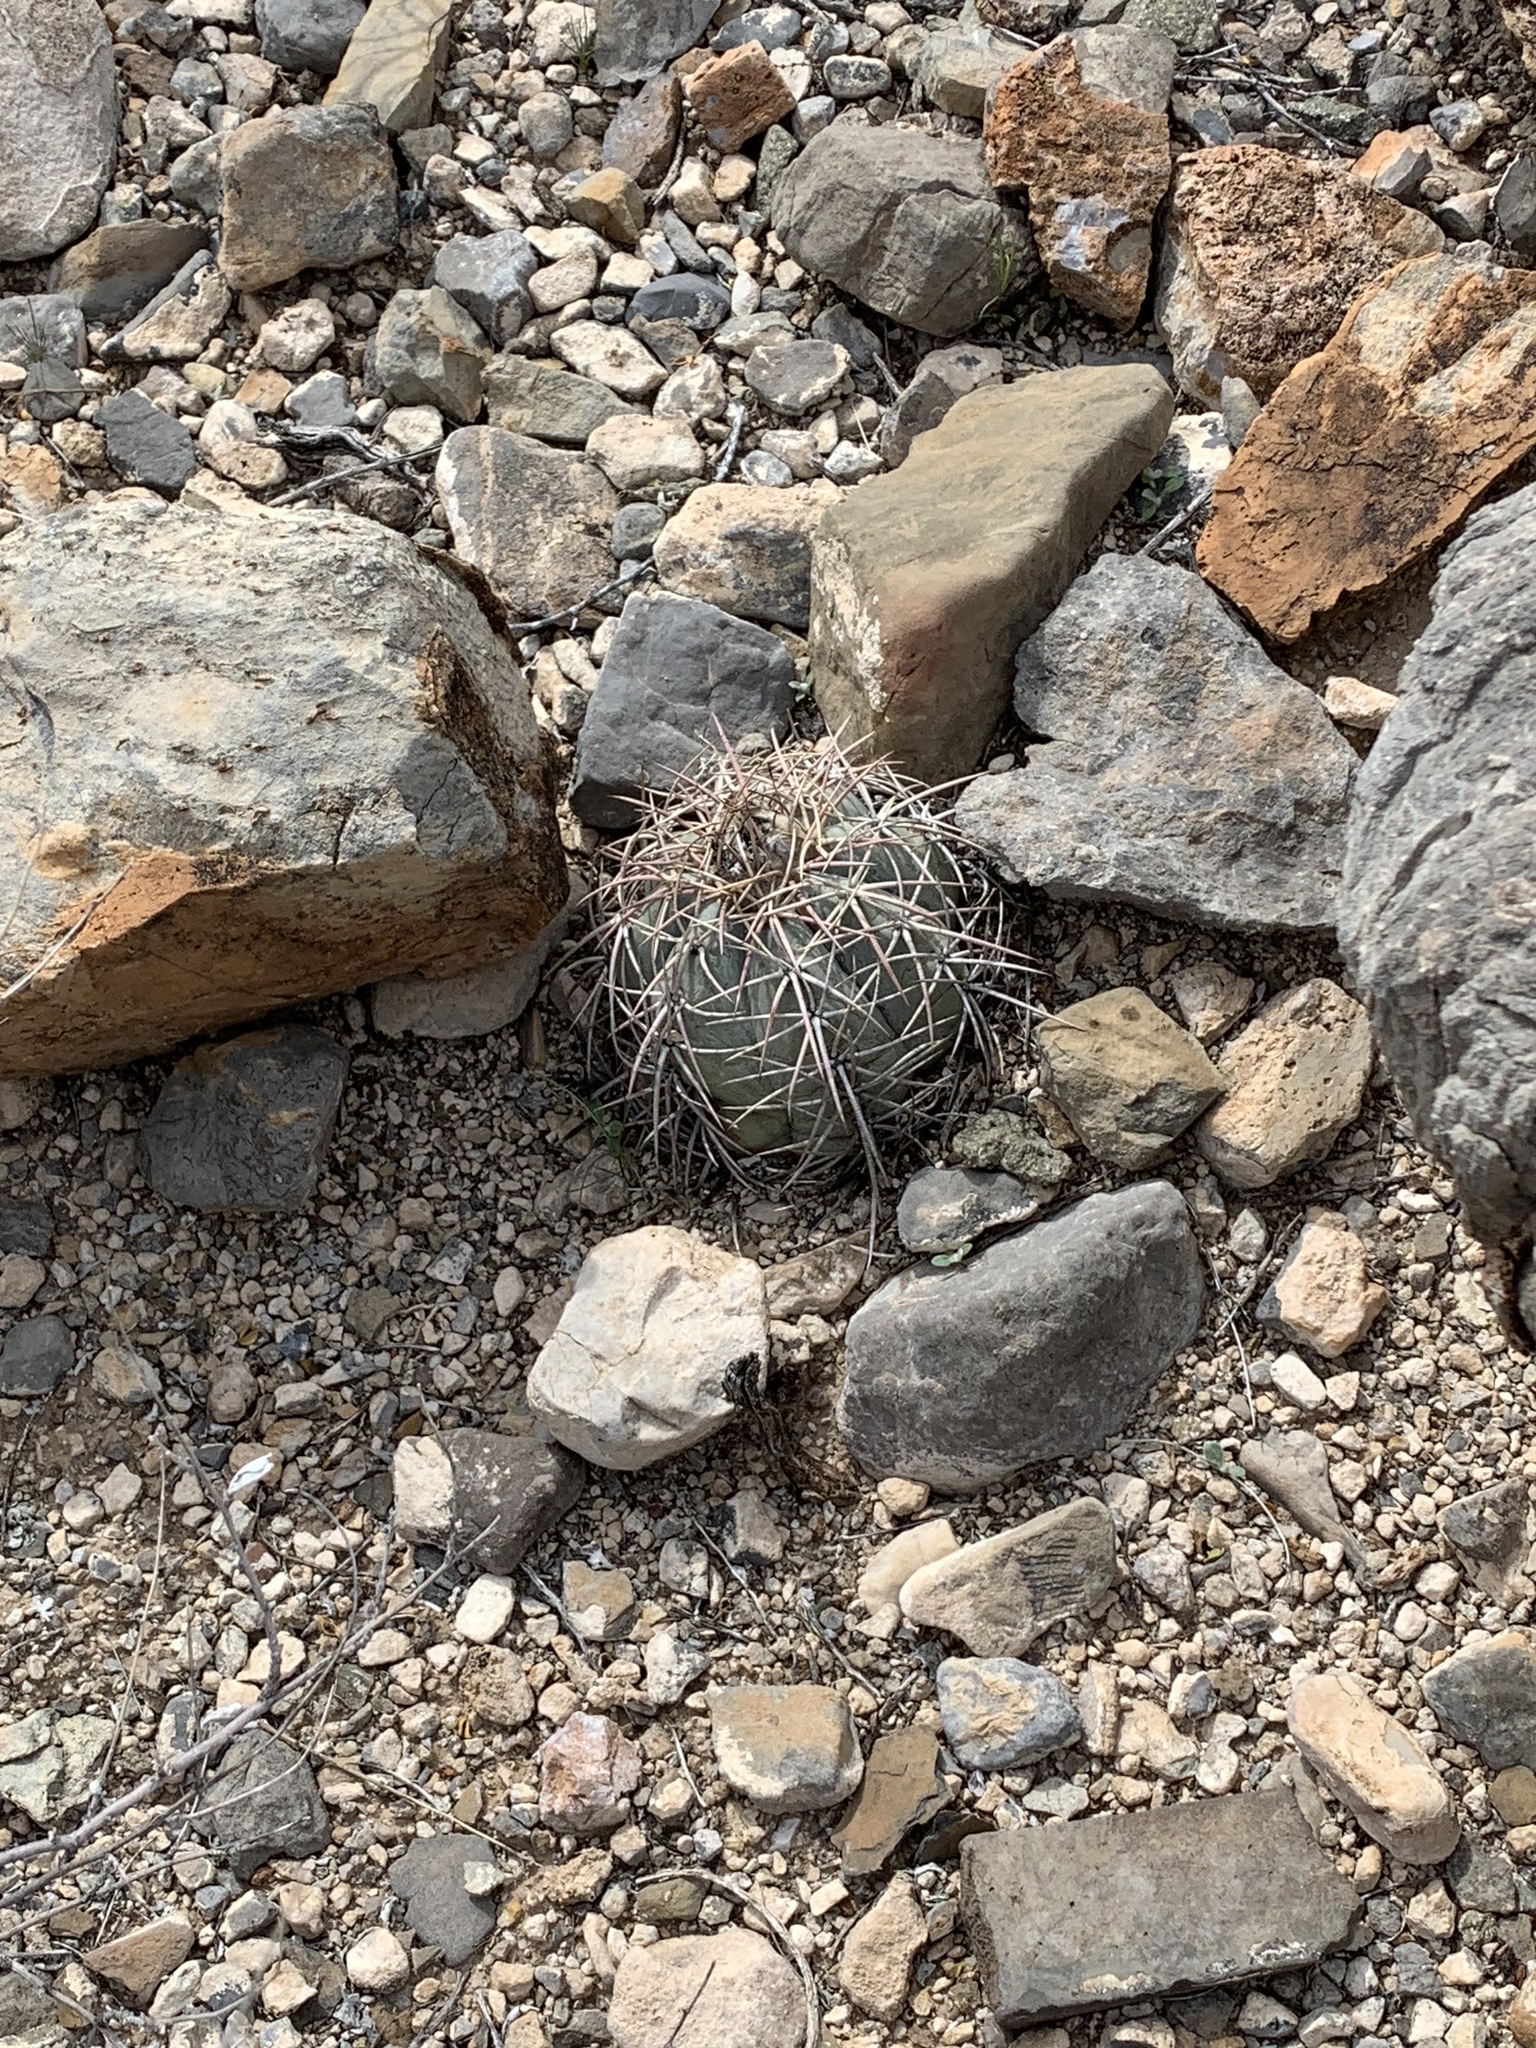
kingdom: Plantae
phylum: Tracheophyta
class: Magnoliopsida
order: Caryophyllales
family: Cactaceae
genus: Echinocactus
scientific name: Echinocactus horizonthalonius
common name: Devilshead
